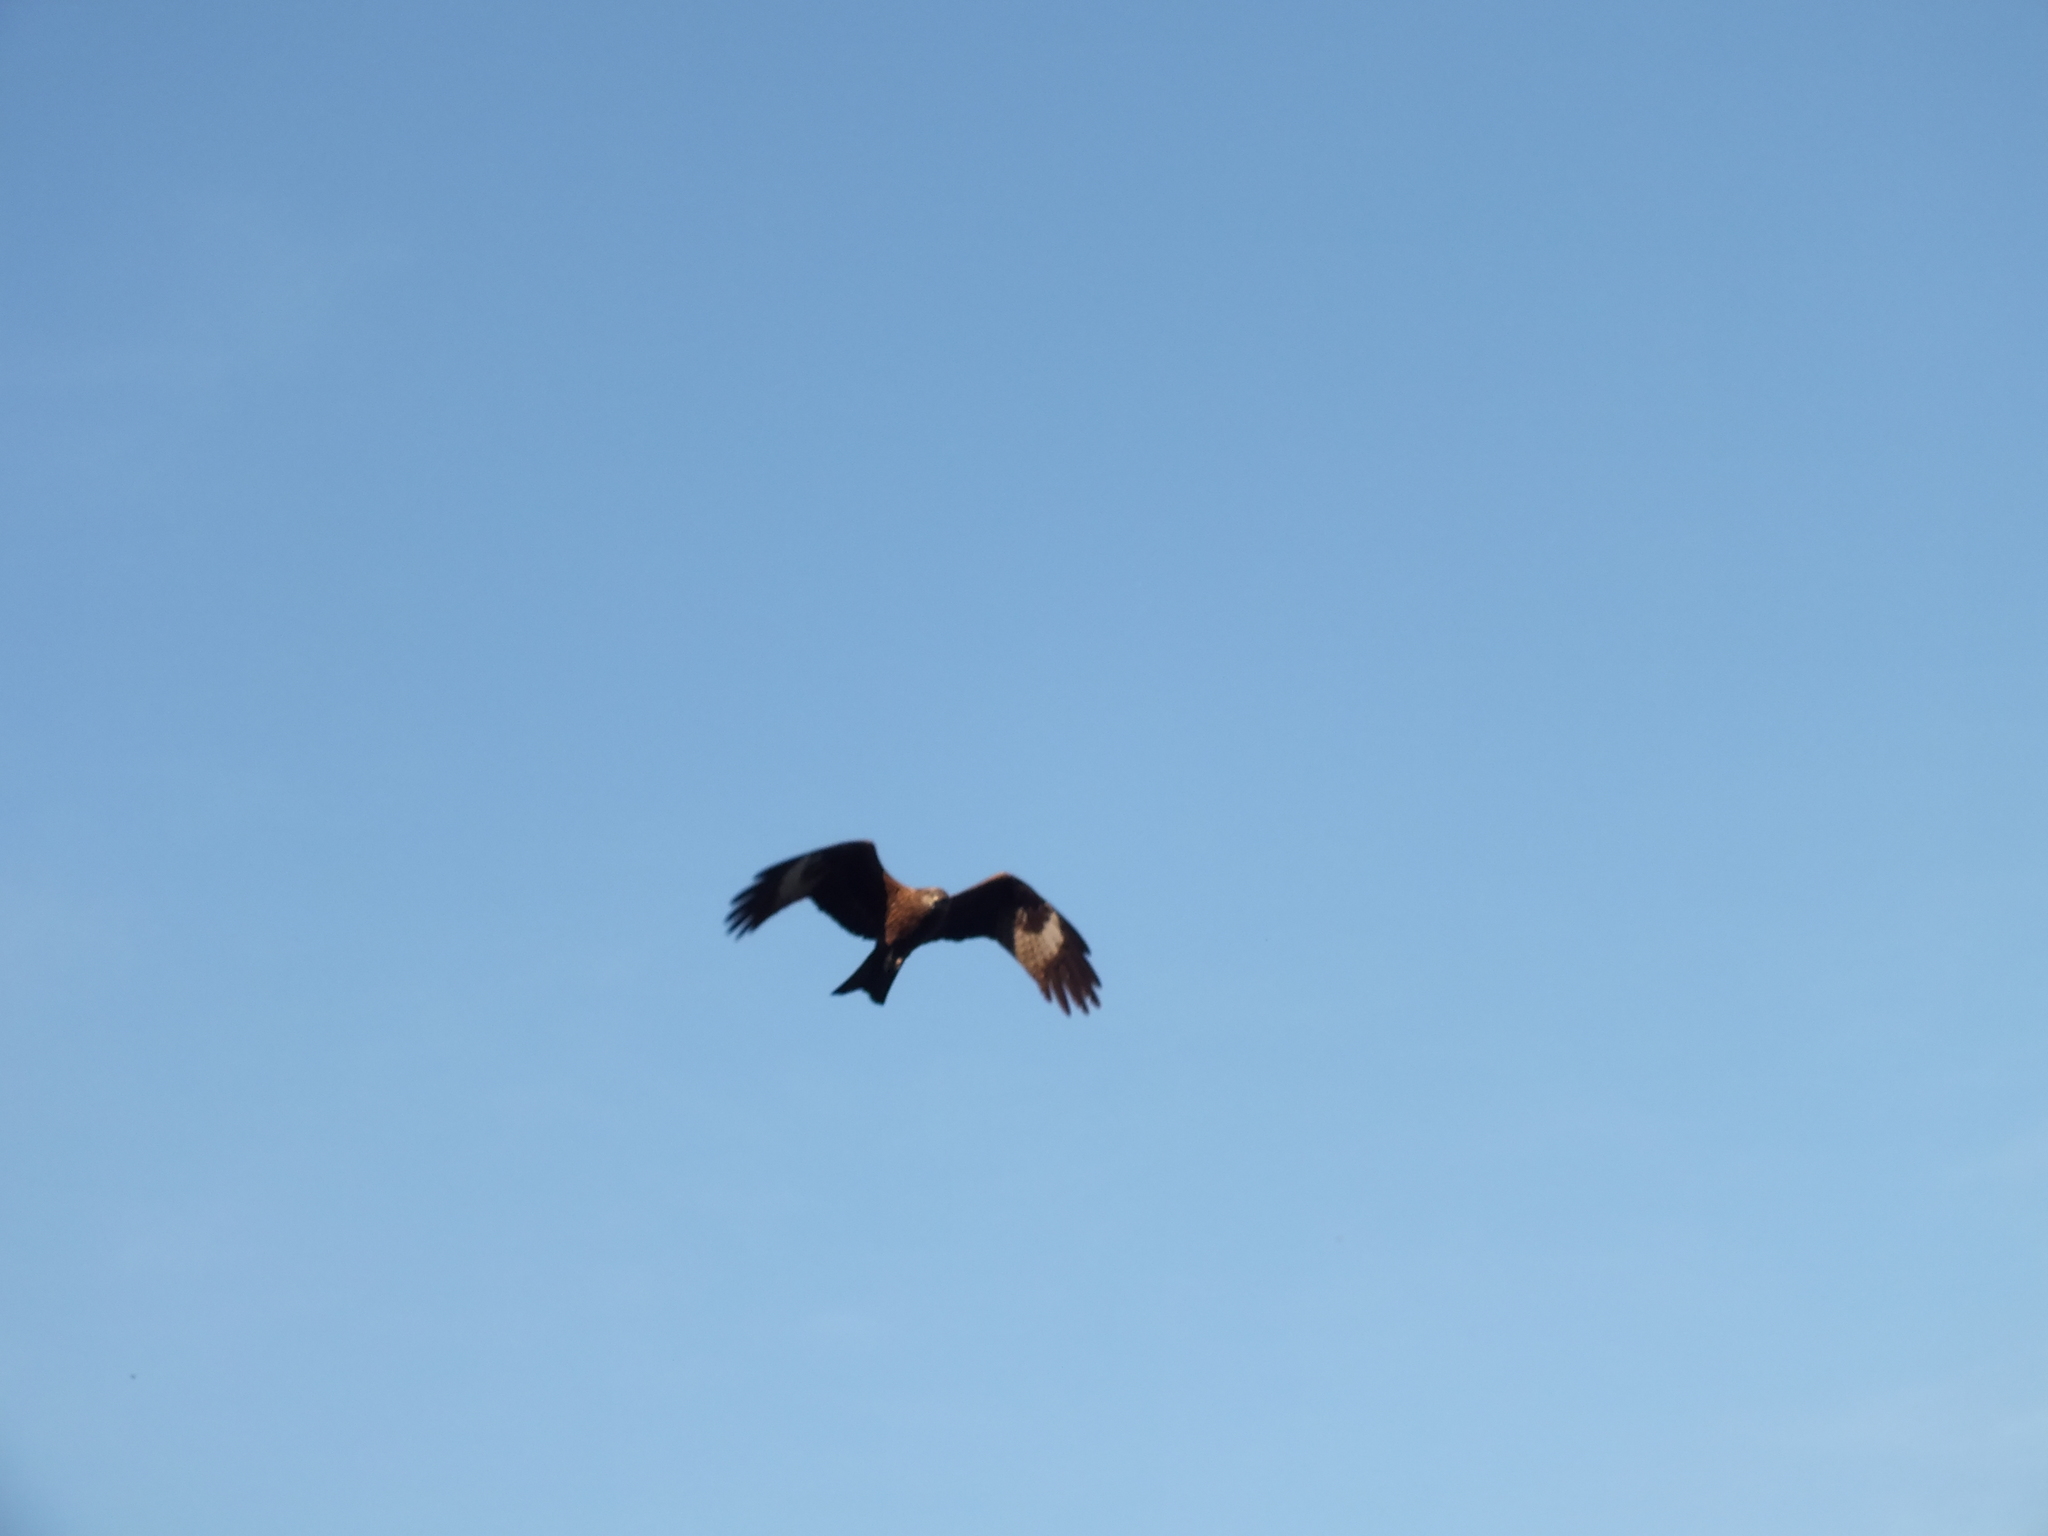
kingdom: Animalia
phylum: Chordata
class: Aves
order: Accipitriformes
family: Accipitridae
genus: Milvus
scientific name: Milvus migrans
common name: Black kite
